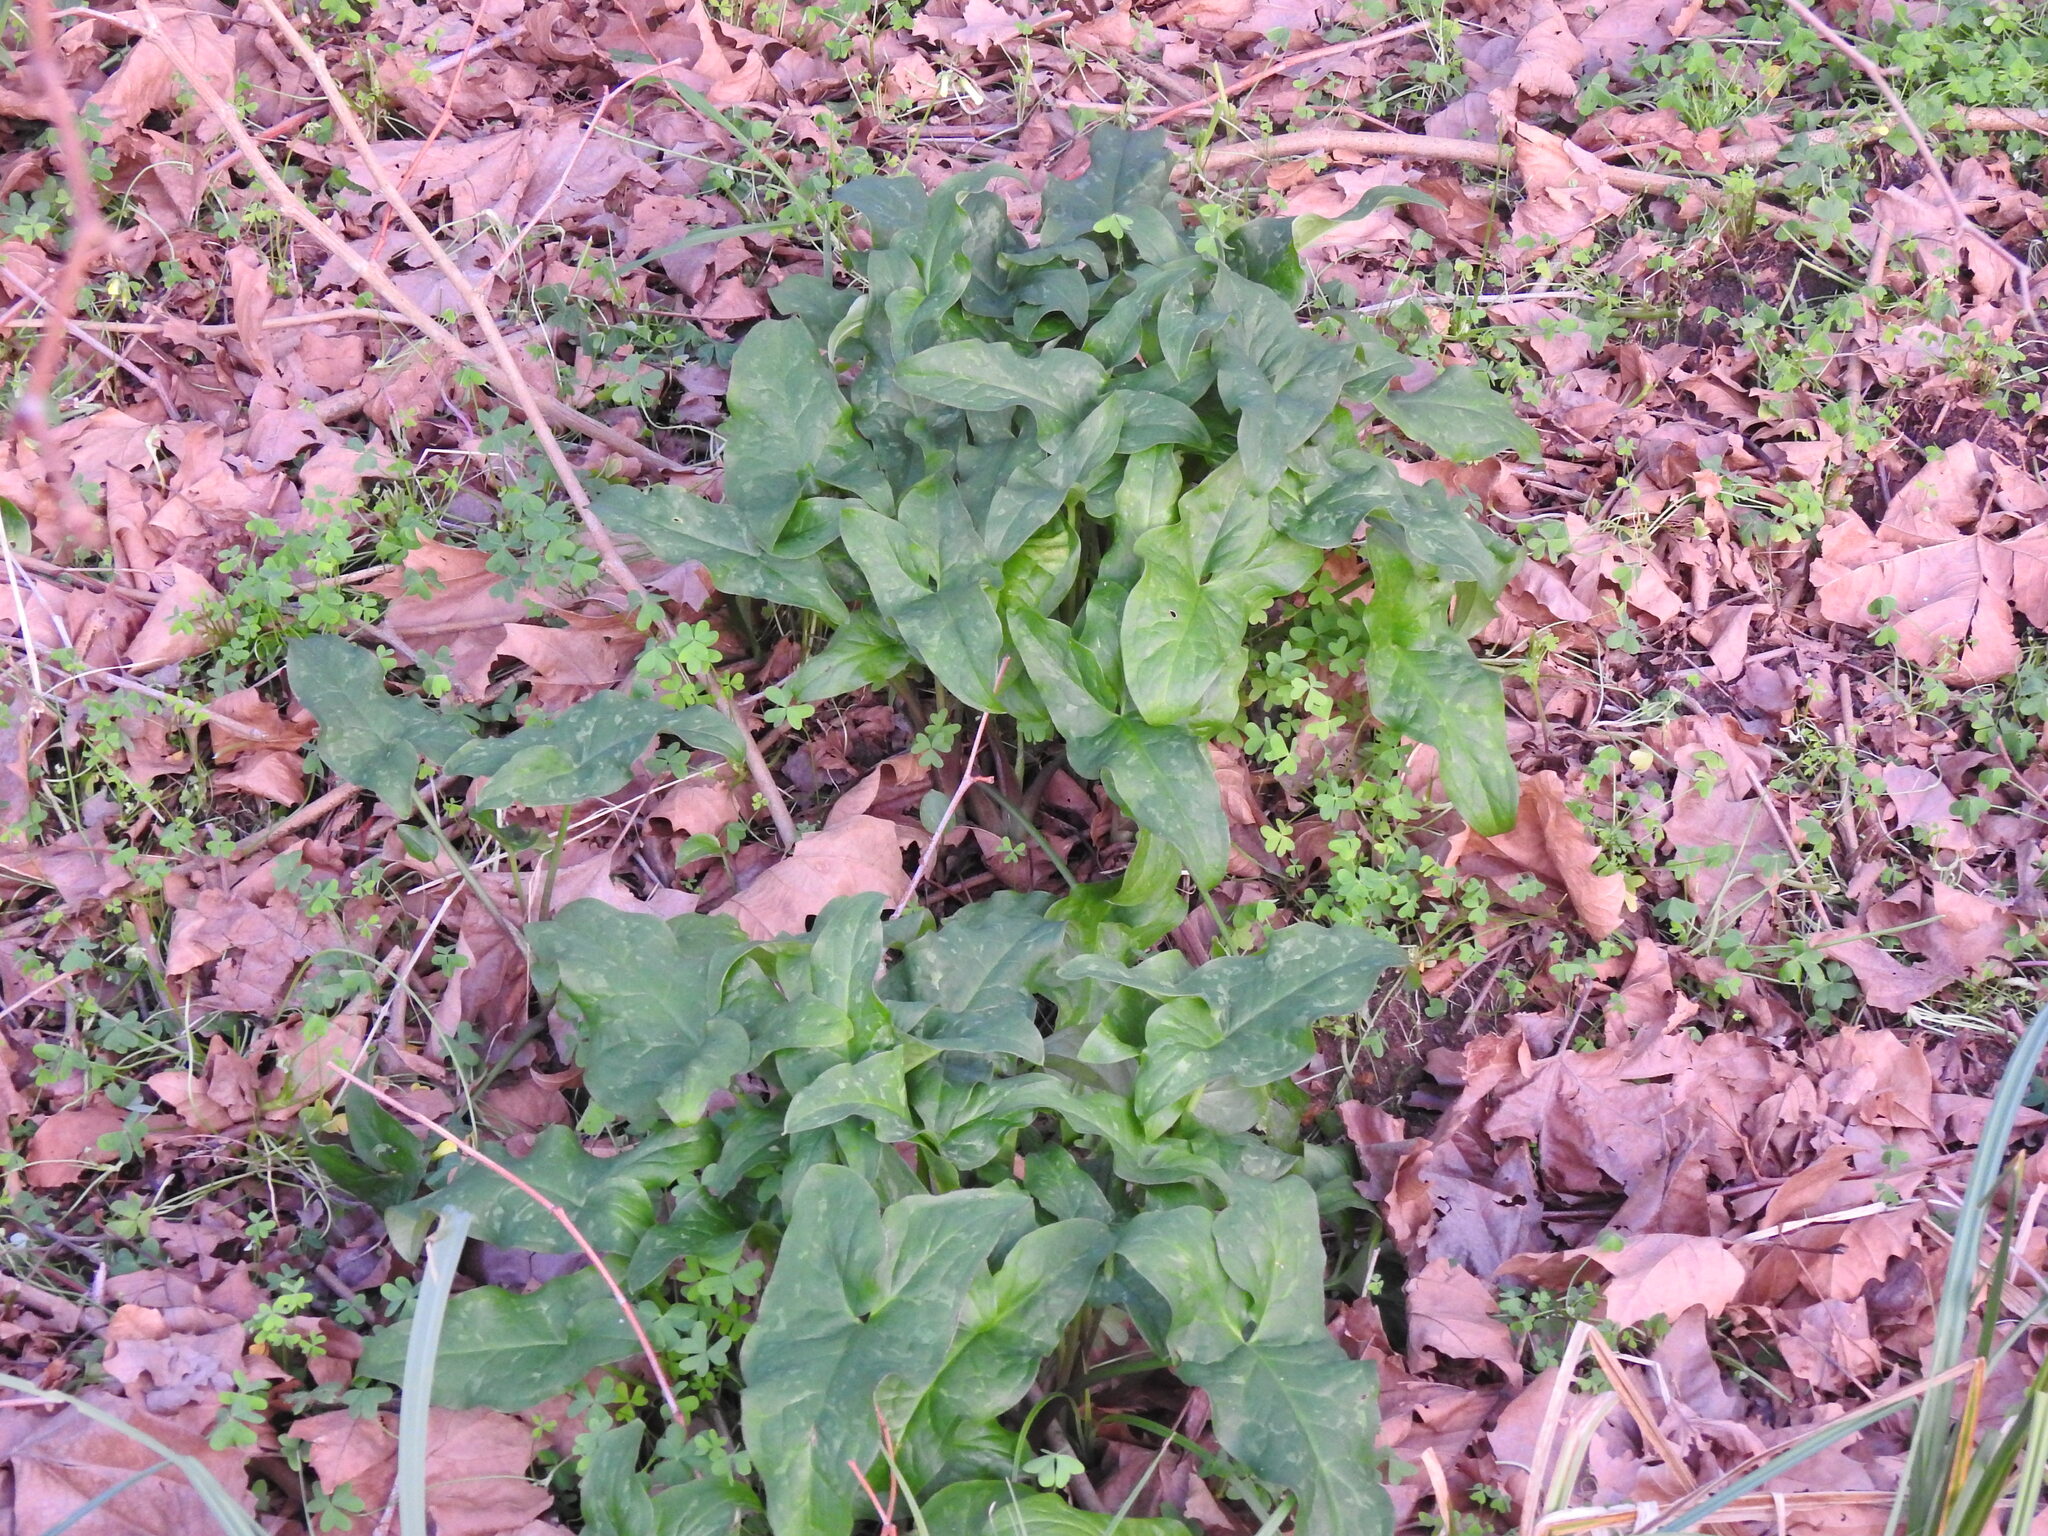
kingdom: Plantae
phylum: Tracheophyta
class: Liliopsida
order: Alismatales
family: Araceae
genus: Arum
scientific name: Arum italicum
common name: Italian lords-and-ladies
